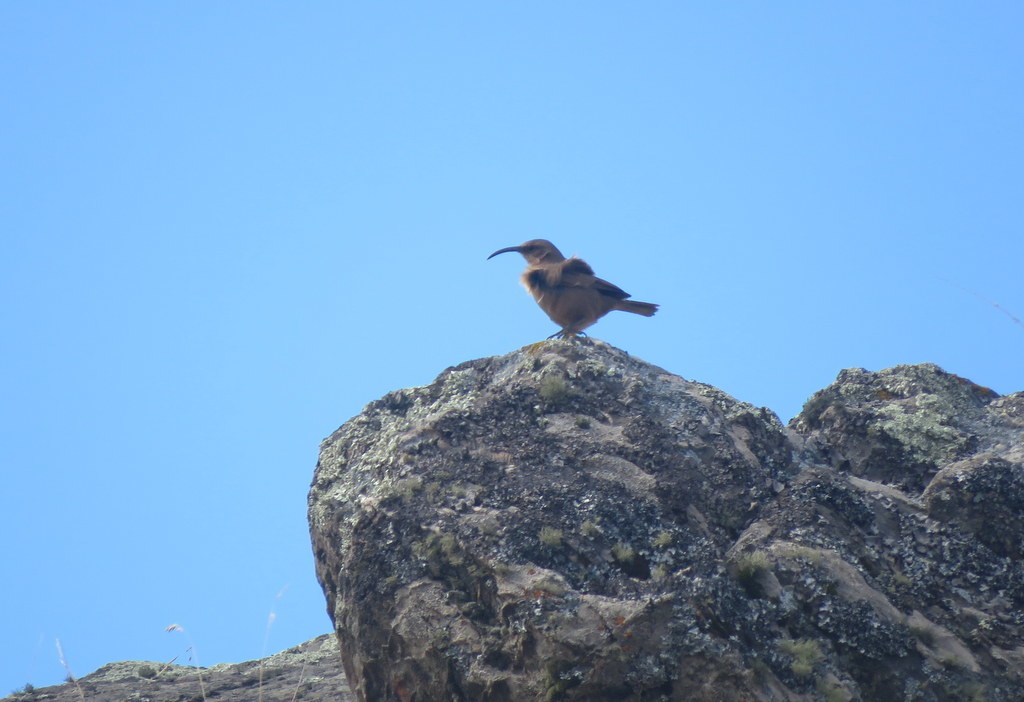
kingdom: Animalia
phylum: Chordata
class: Aves
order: Passeriformes
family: Furnariidae
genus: Upucerthia
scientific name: Upucerthia validirostris
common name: Buff-breasted earthcreeper
